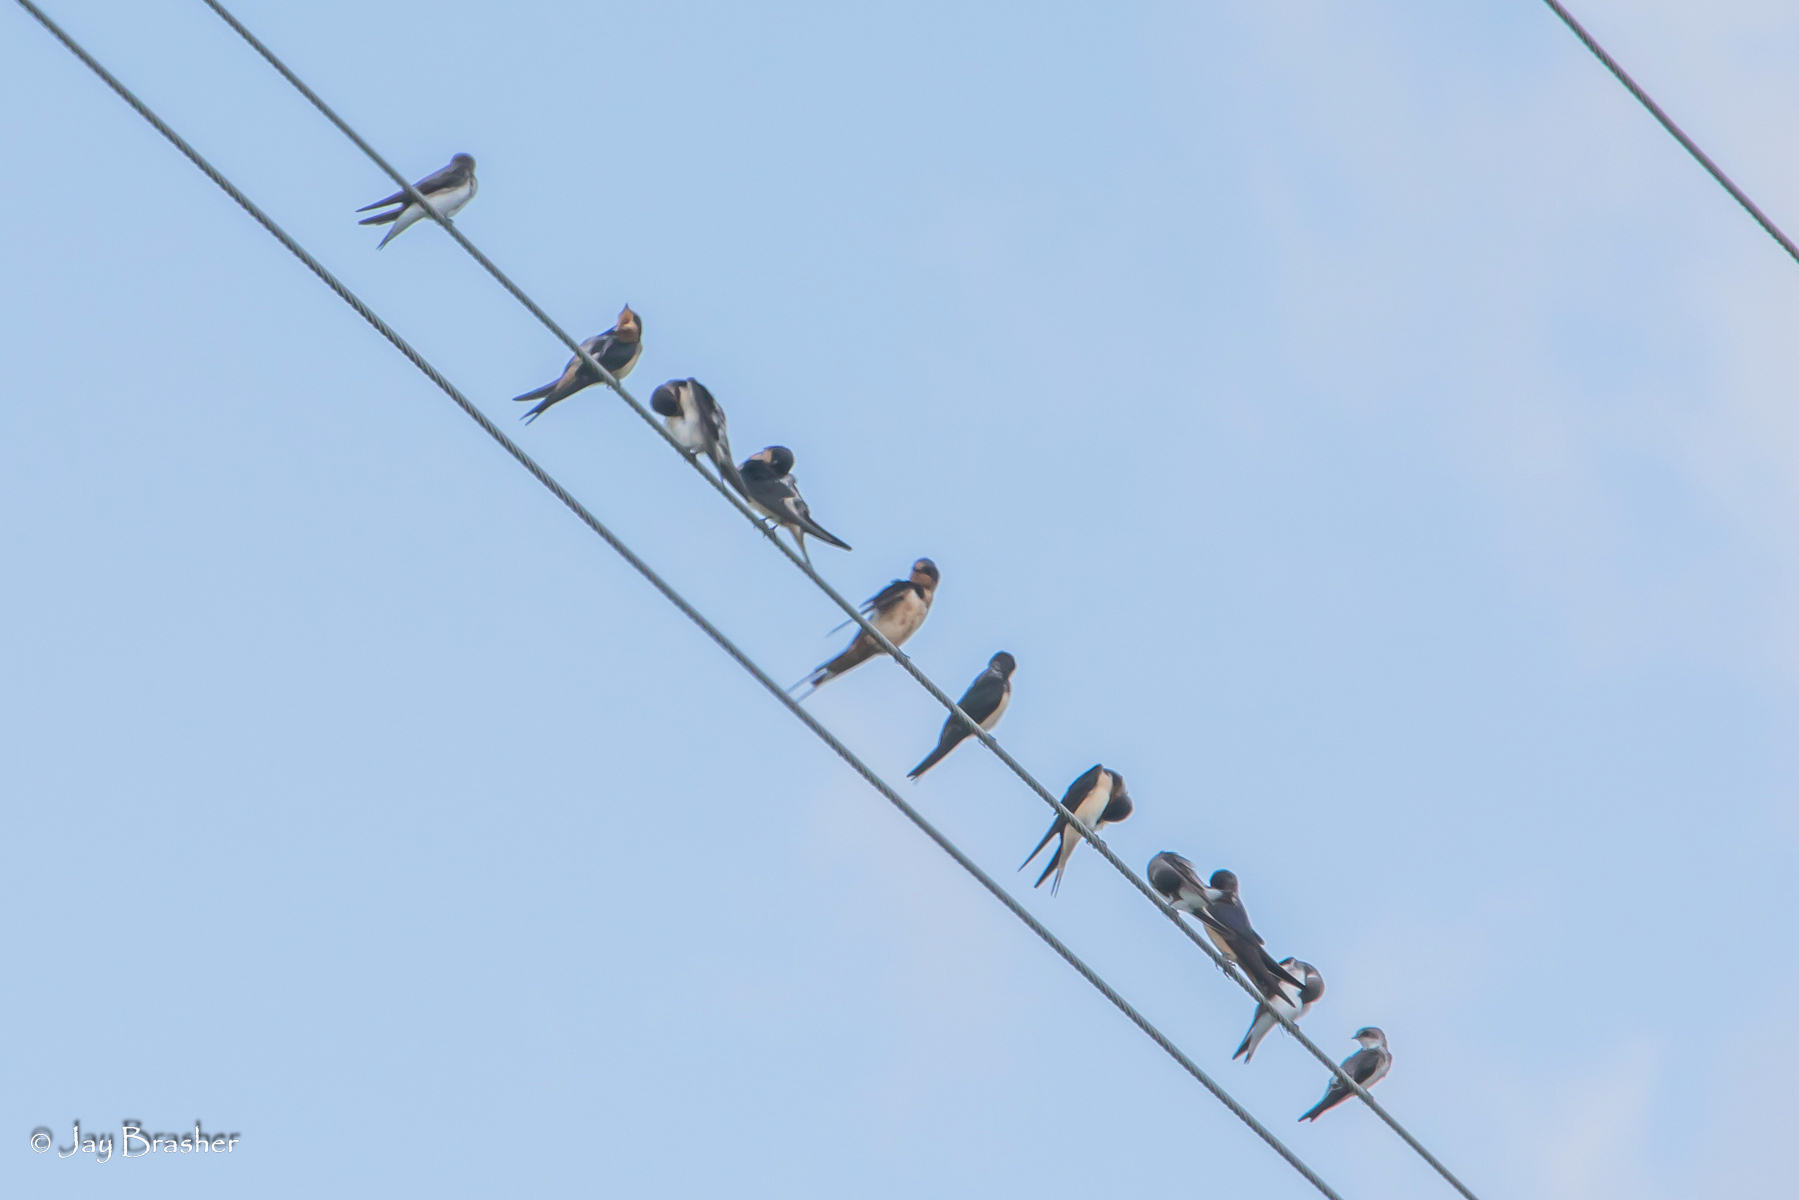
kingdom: Animalia
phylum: Chordata
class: Aves
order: Passeriformes
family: Hirundinidae
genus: Hirundo
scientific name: Hirundo rustica
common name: Barn swallow
